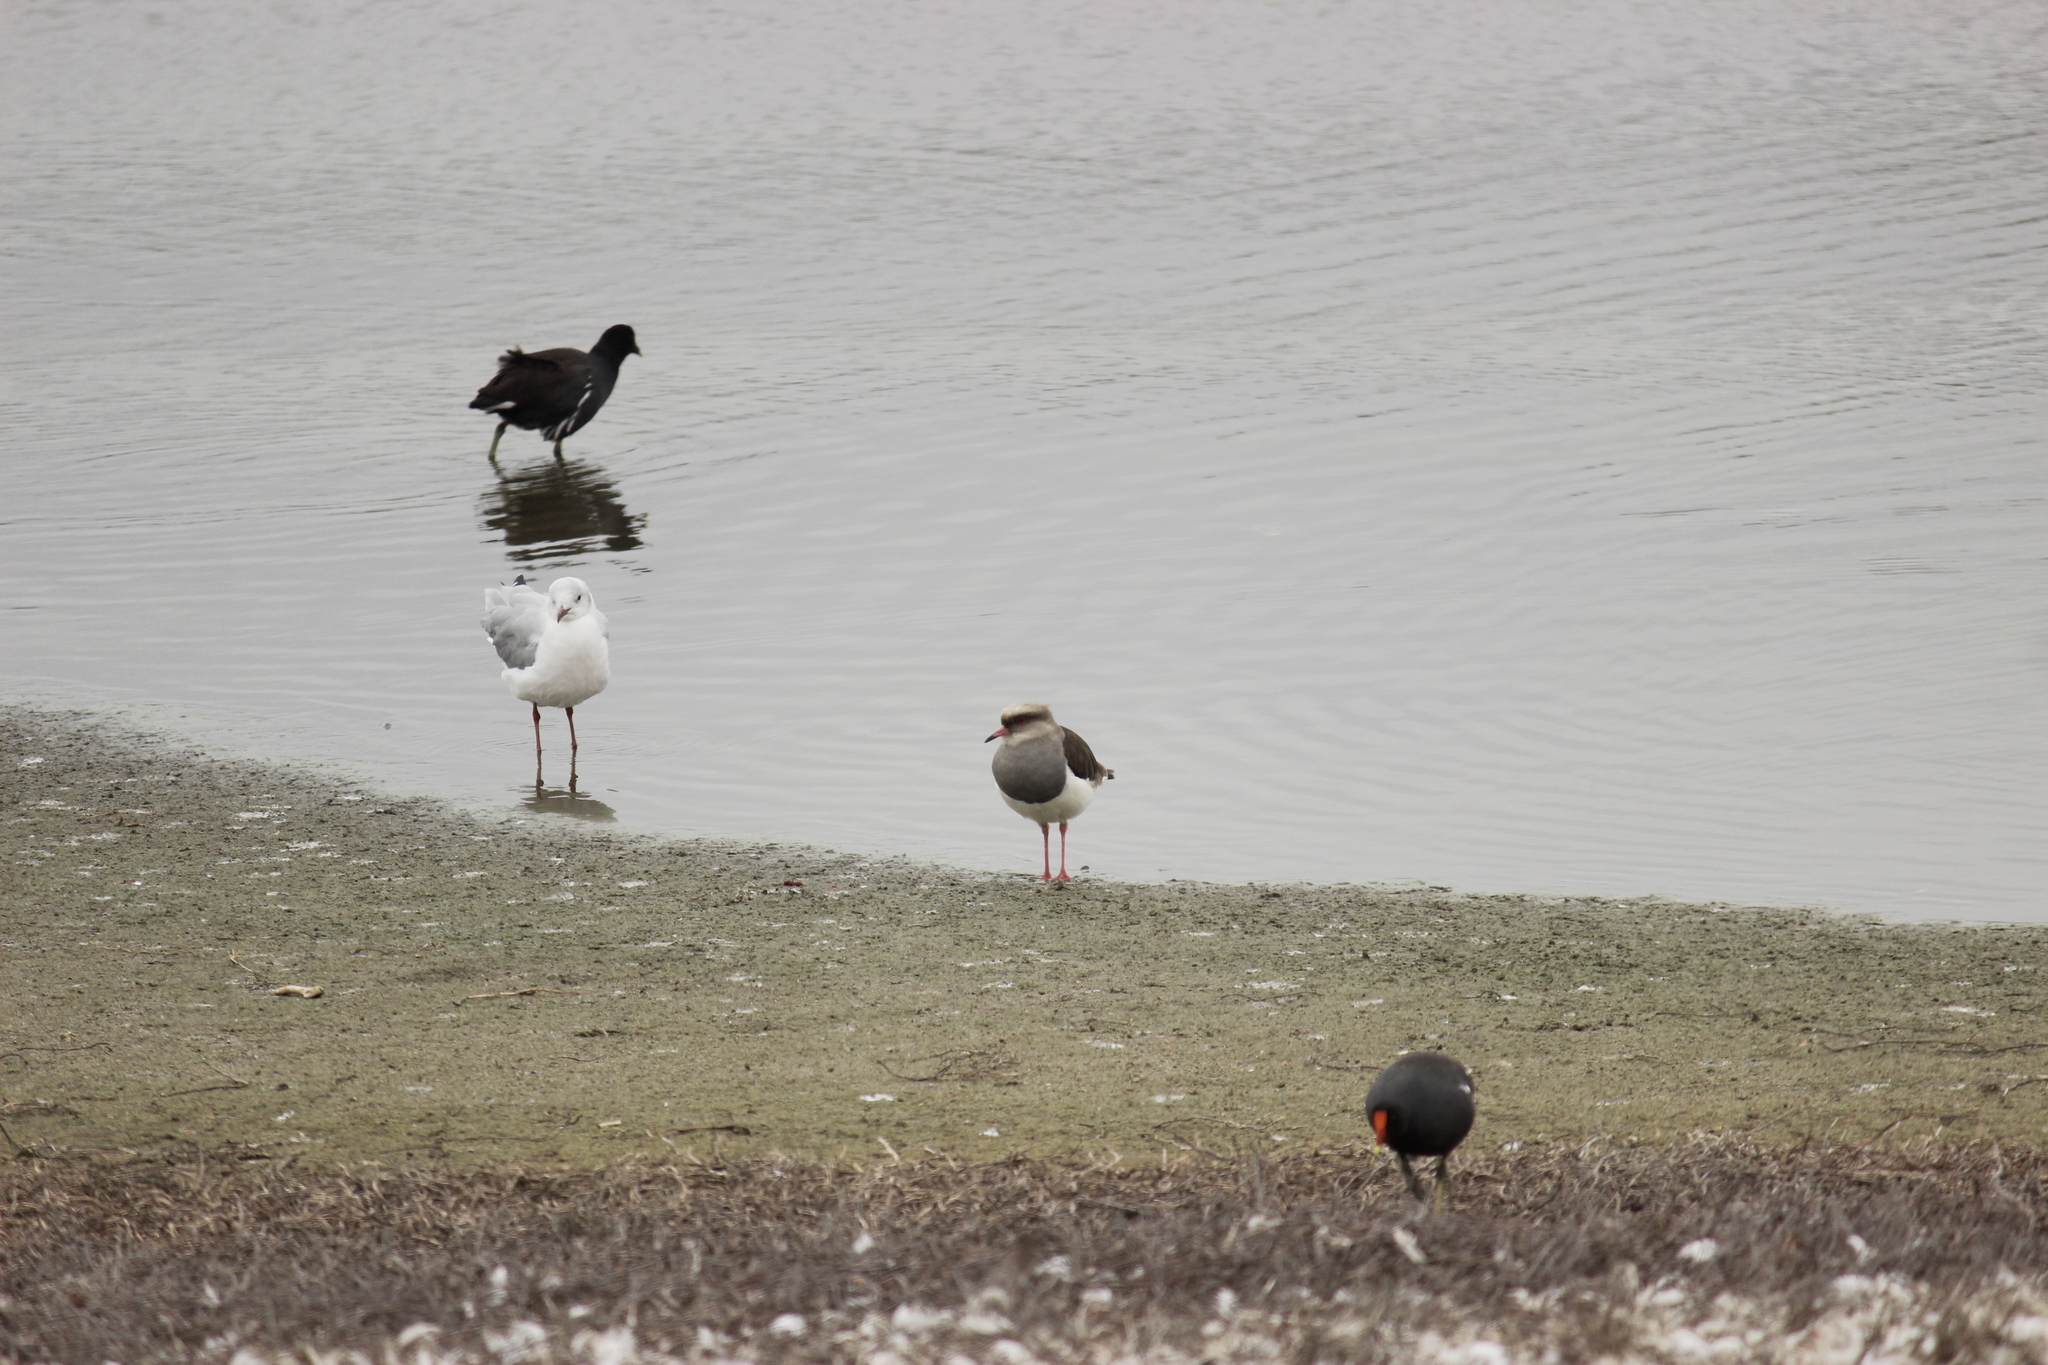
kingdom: Animalia
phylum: Chordata
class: Aves
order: Charadriiformes
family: Charadriidae
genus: Vanellus
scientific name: Vanellus resplendens
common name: Andean lapwing
